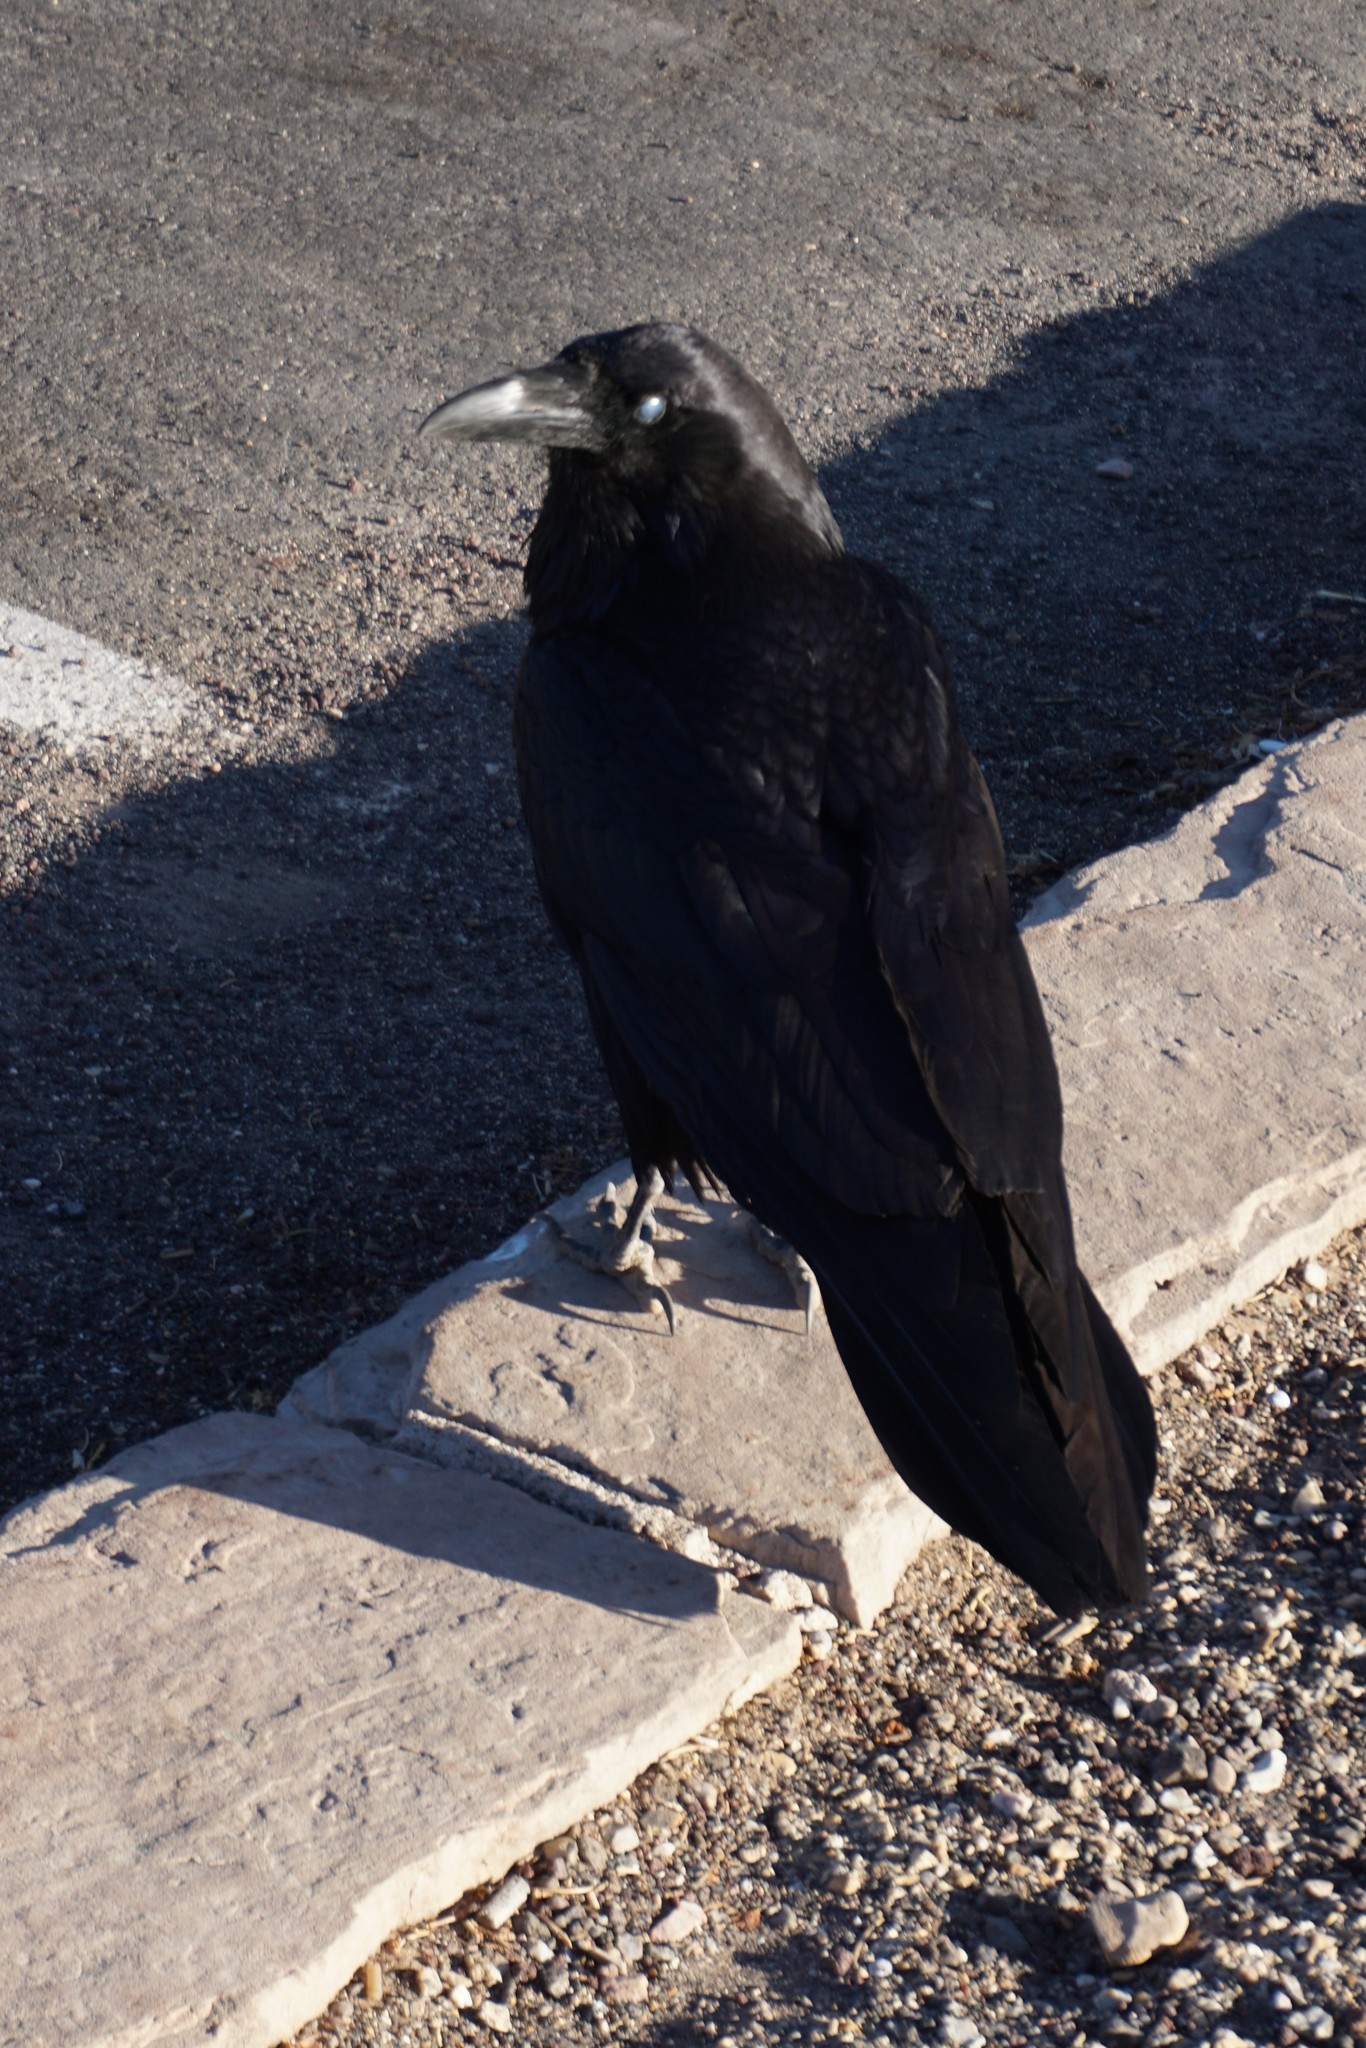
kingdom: Animalia
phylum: Chordata
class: Aves
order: Passeriformes
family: Corvidae
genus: Corvus
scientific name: Corvus corax
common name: Common raven
